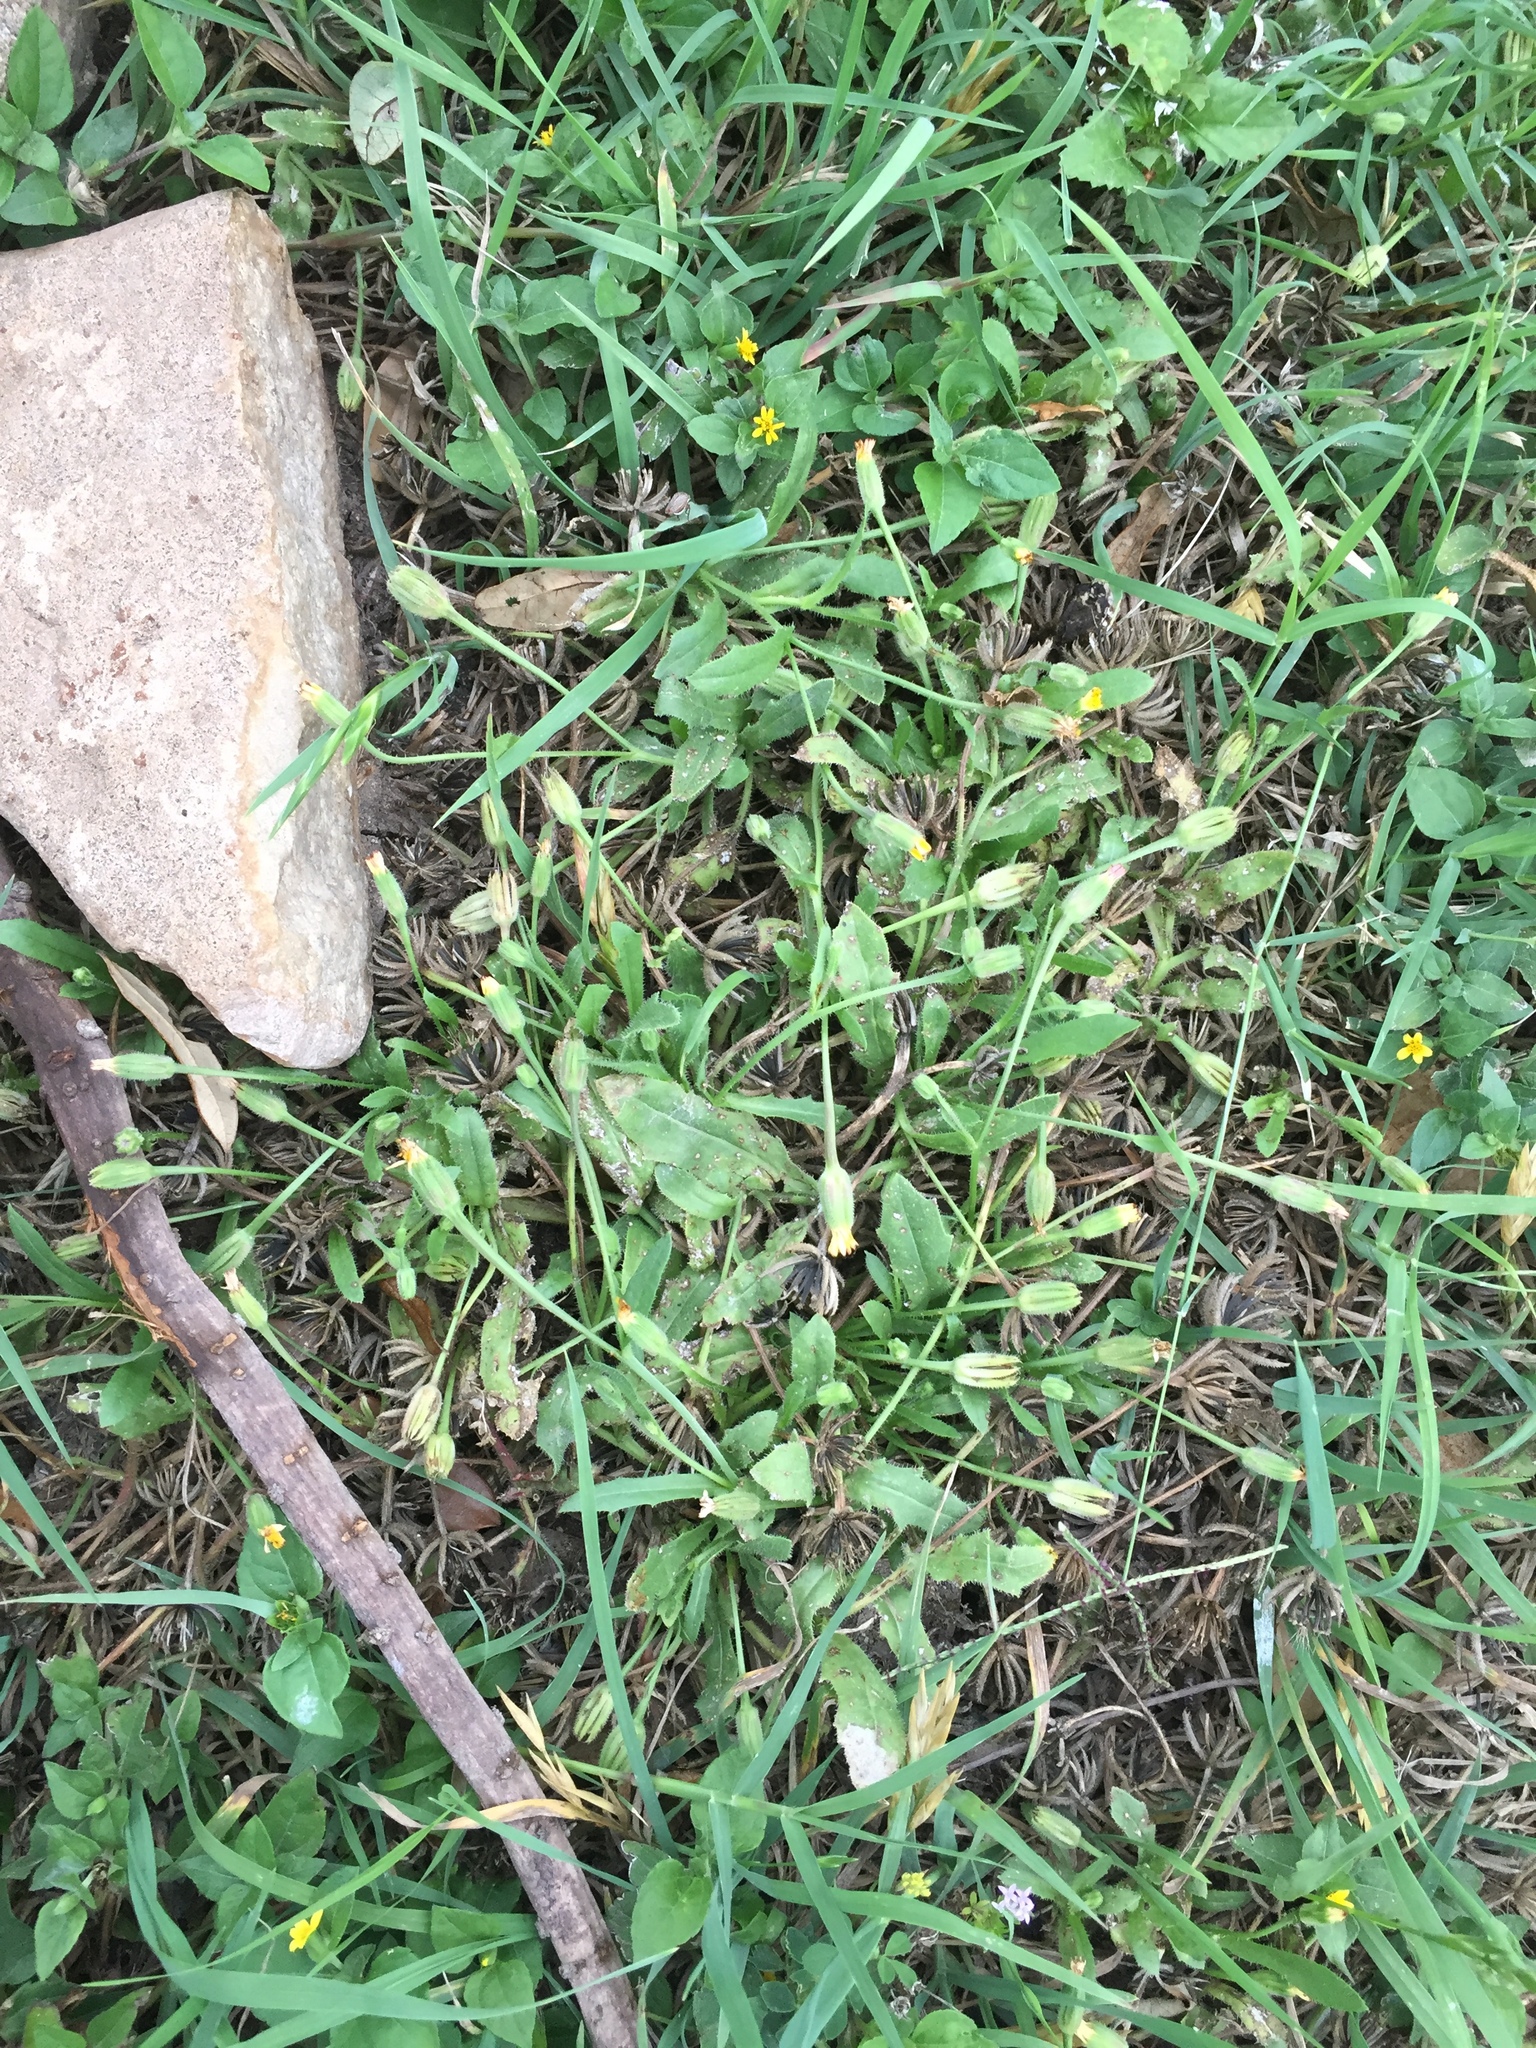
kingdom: Plantae
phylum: Tracheophyta
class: Magnoliopsida
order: Asterales
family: Asteraceae
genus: Hedypnois
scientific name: Hedypnois rhagadioloides
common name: Cretan weed
